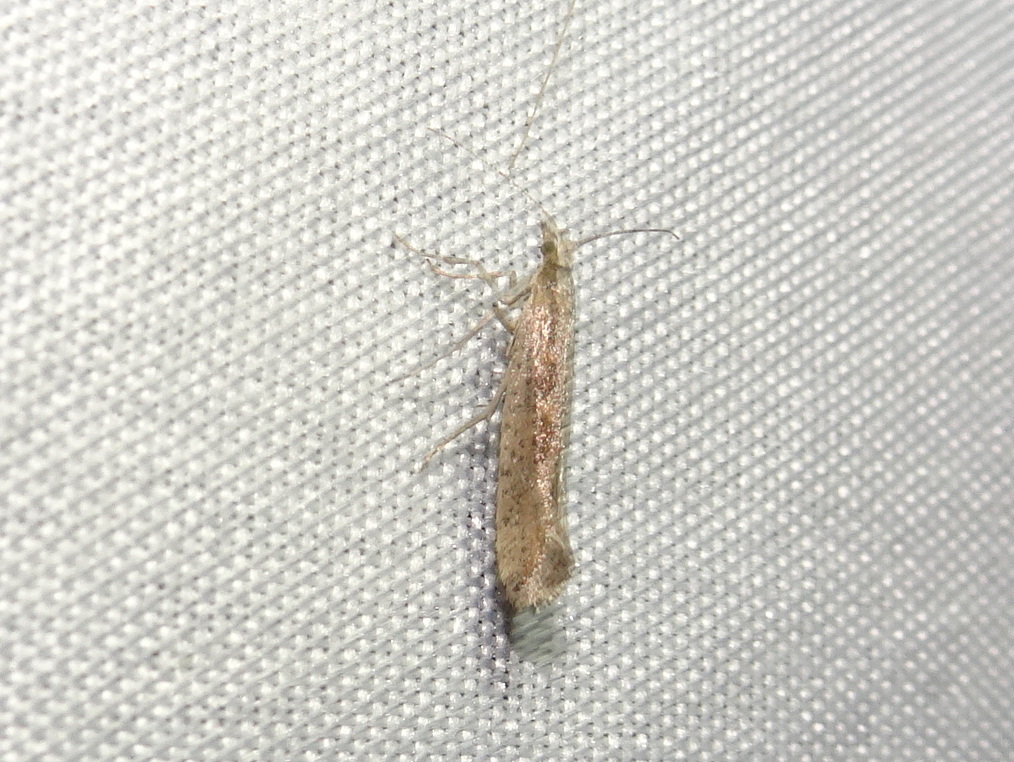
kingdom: Animalia
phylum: Arthropoda
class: Insecta
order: Lepidoptera
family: Plutellidae
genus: Plutella
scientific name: Plutella xylostella
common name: Diamond-back moth
